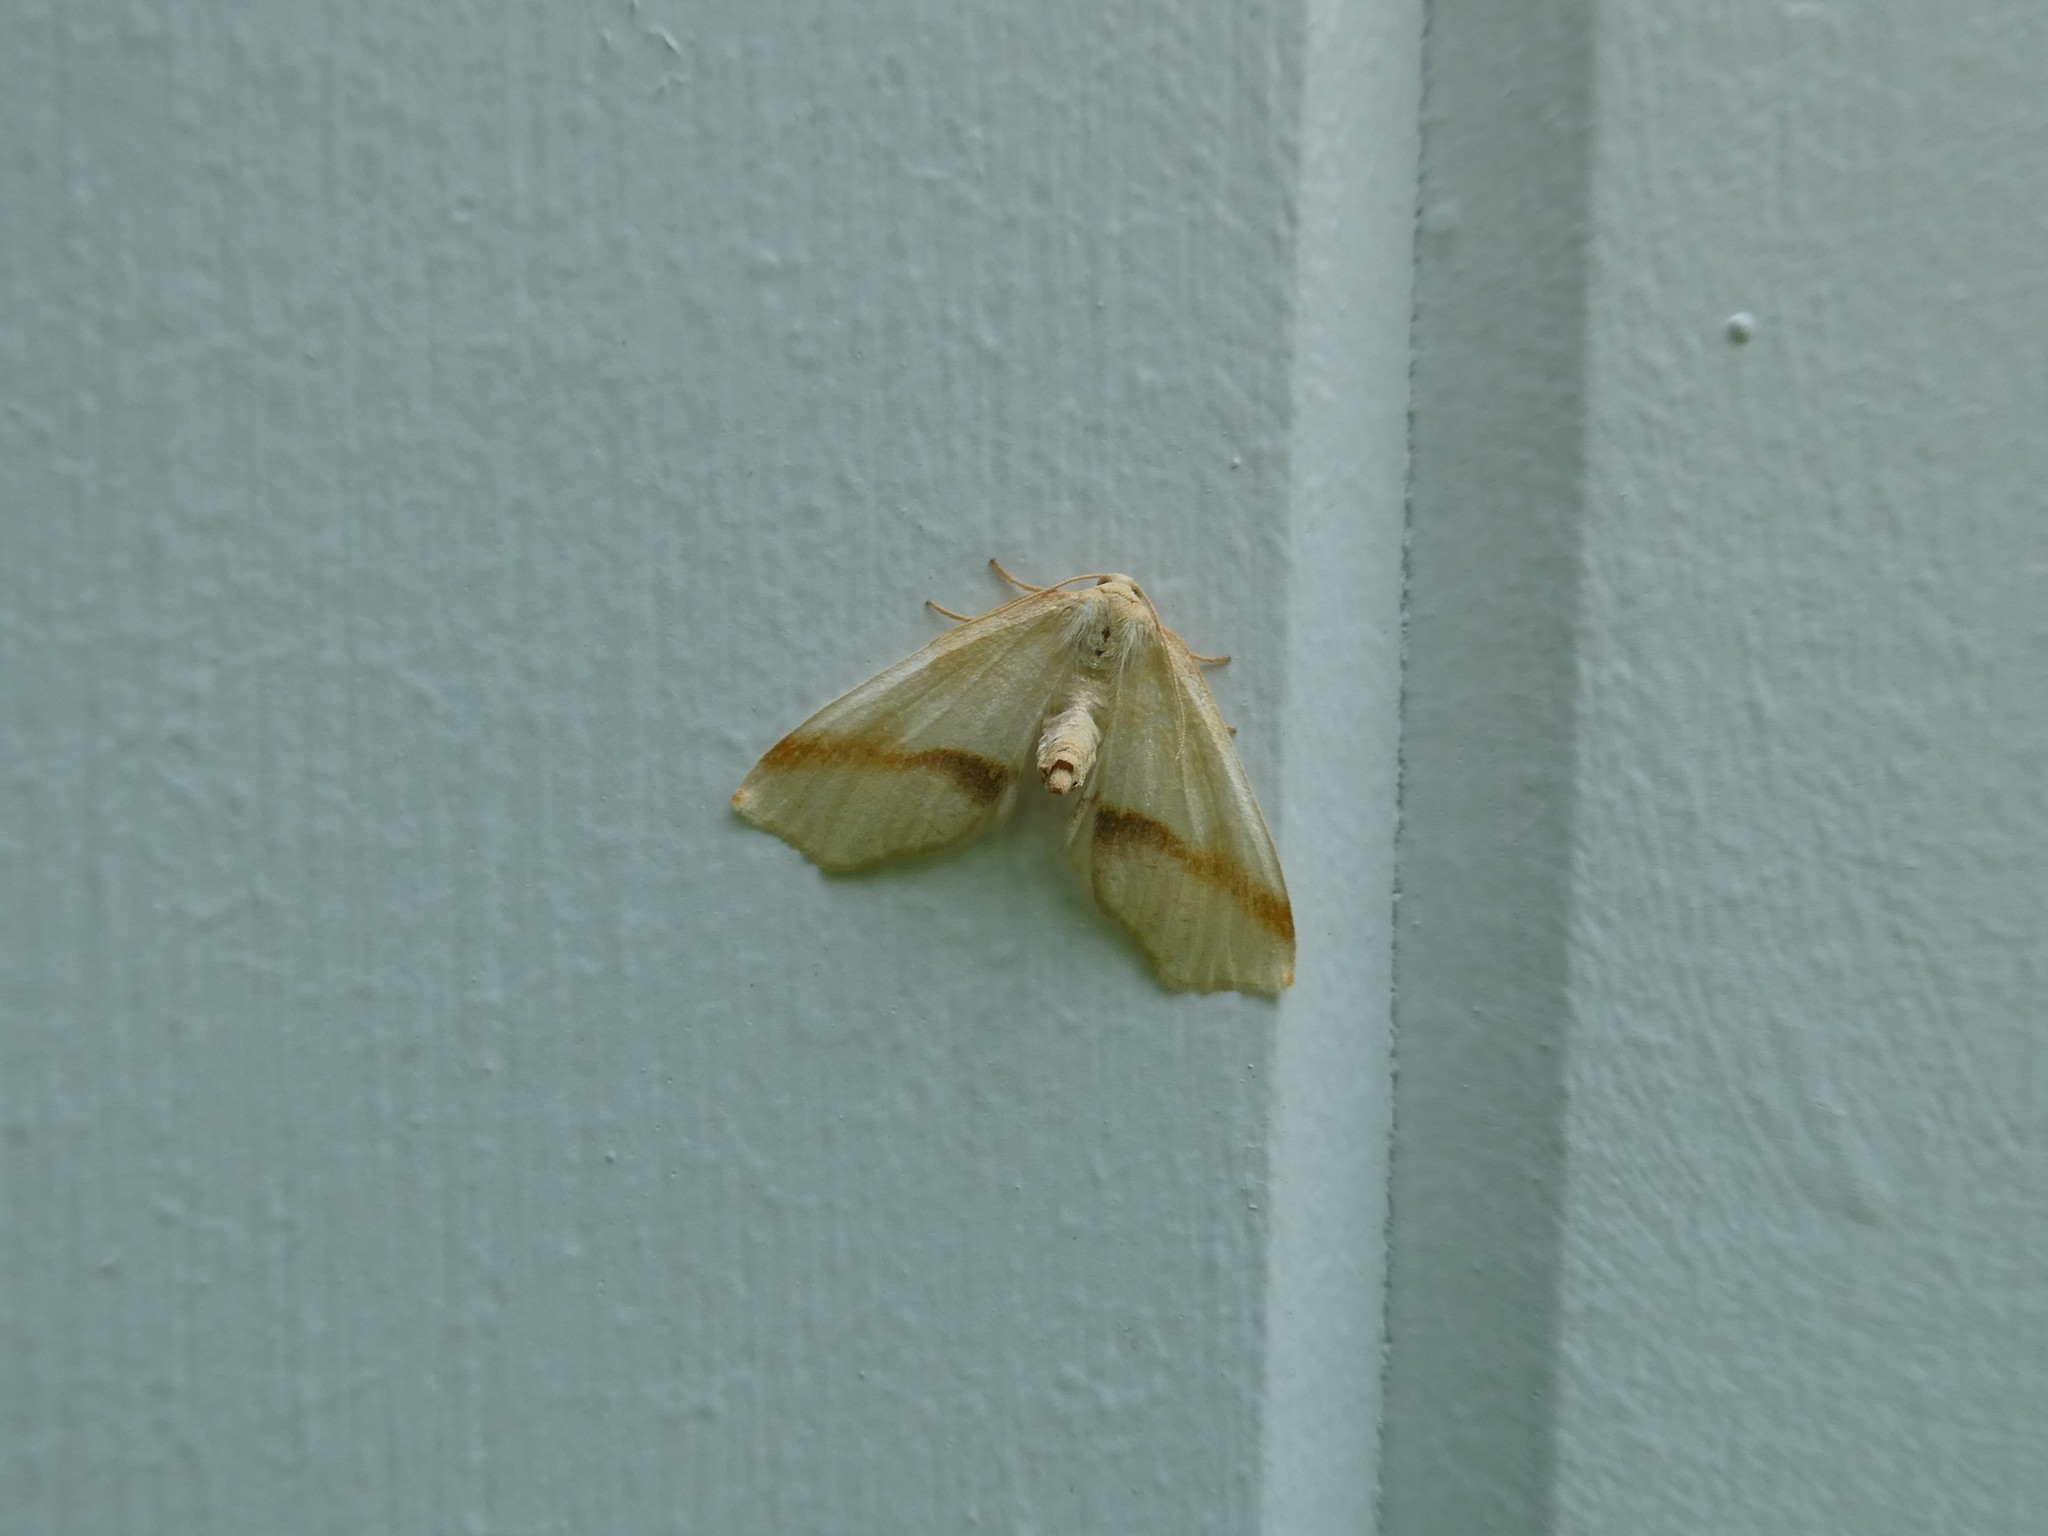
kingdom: Animalia
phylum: Arthropoda
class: Insecta
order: Lepidoptera
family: Geometridae
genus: Plagodis
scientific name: Plagodis serinaria
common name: Lemon plagodis
